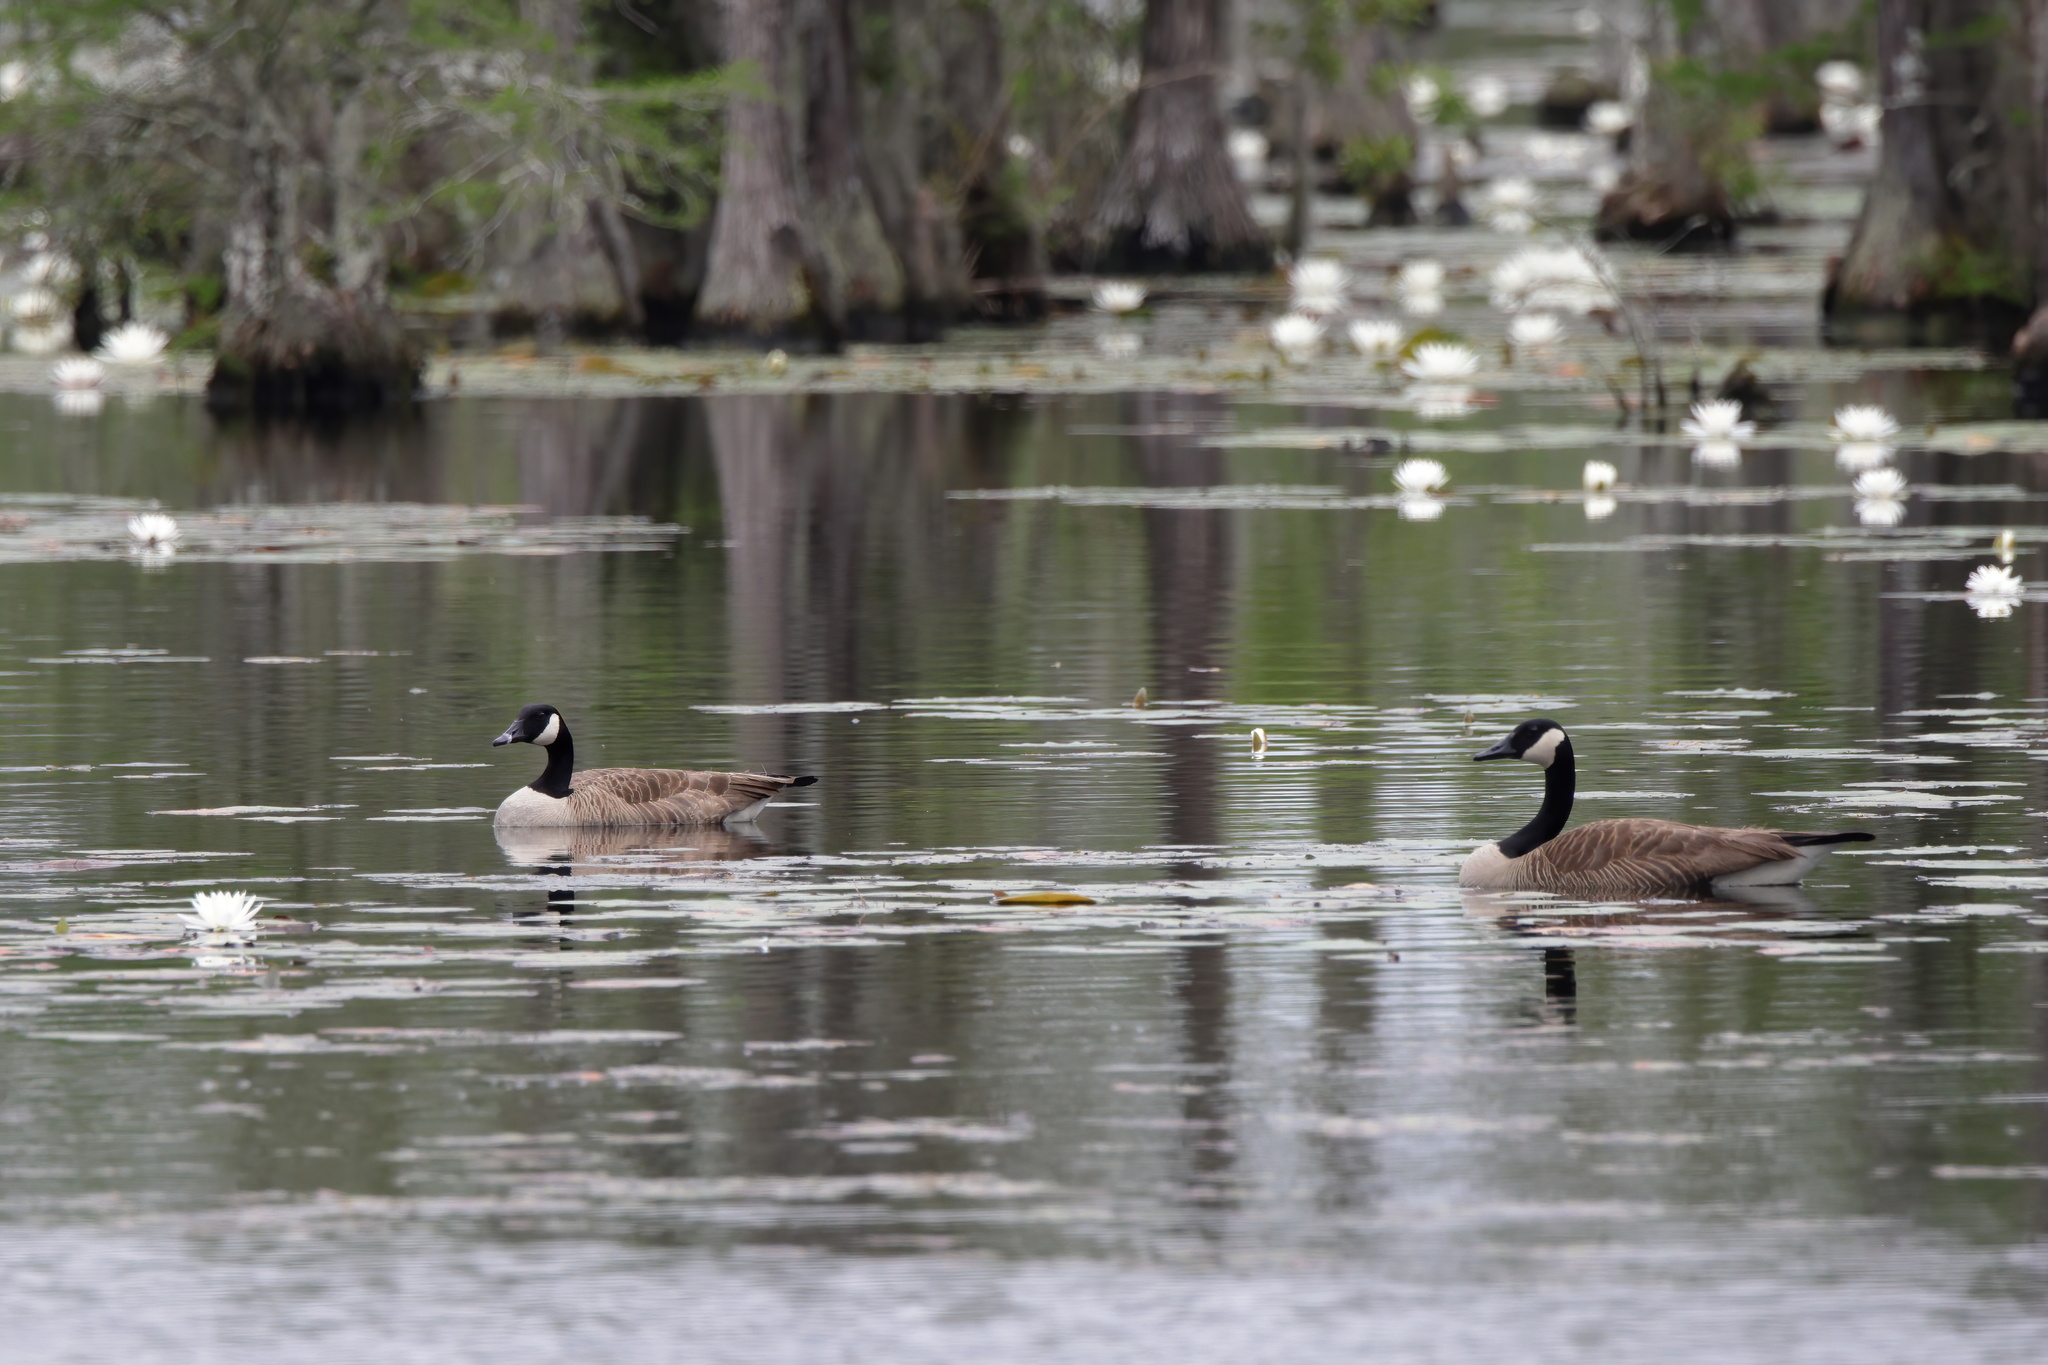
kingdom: Animalia
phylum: Chordata
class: Aves
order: Anseriformes
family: Anatidae
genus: Branta
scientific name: Branta canadensis
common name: Canada goose
